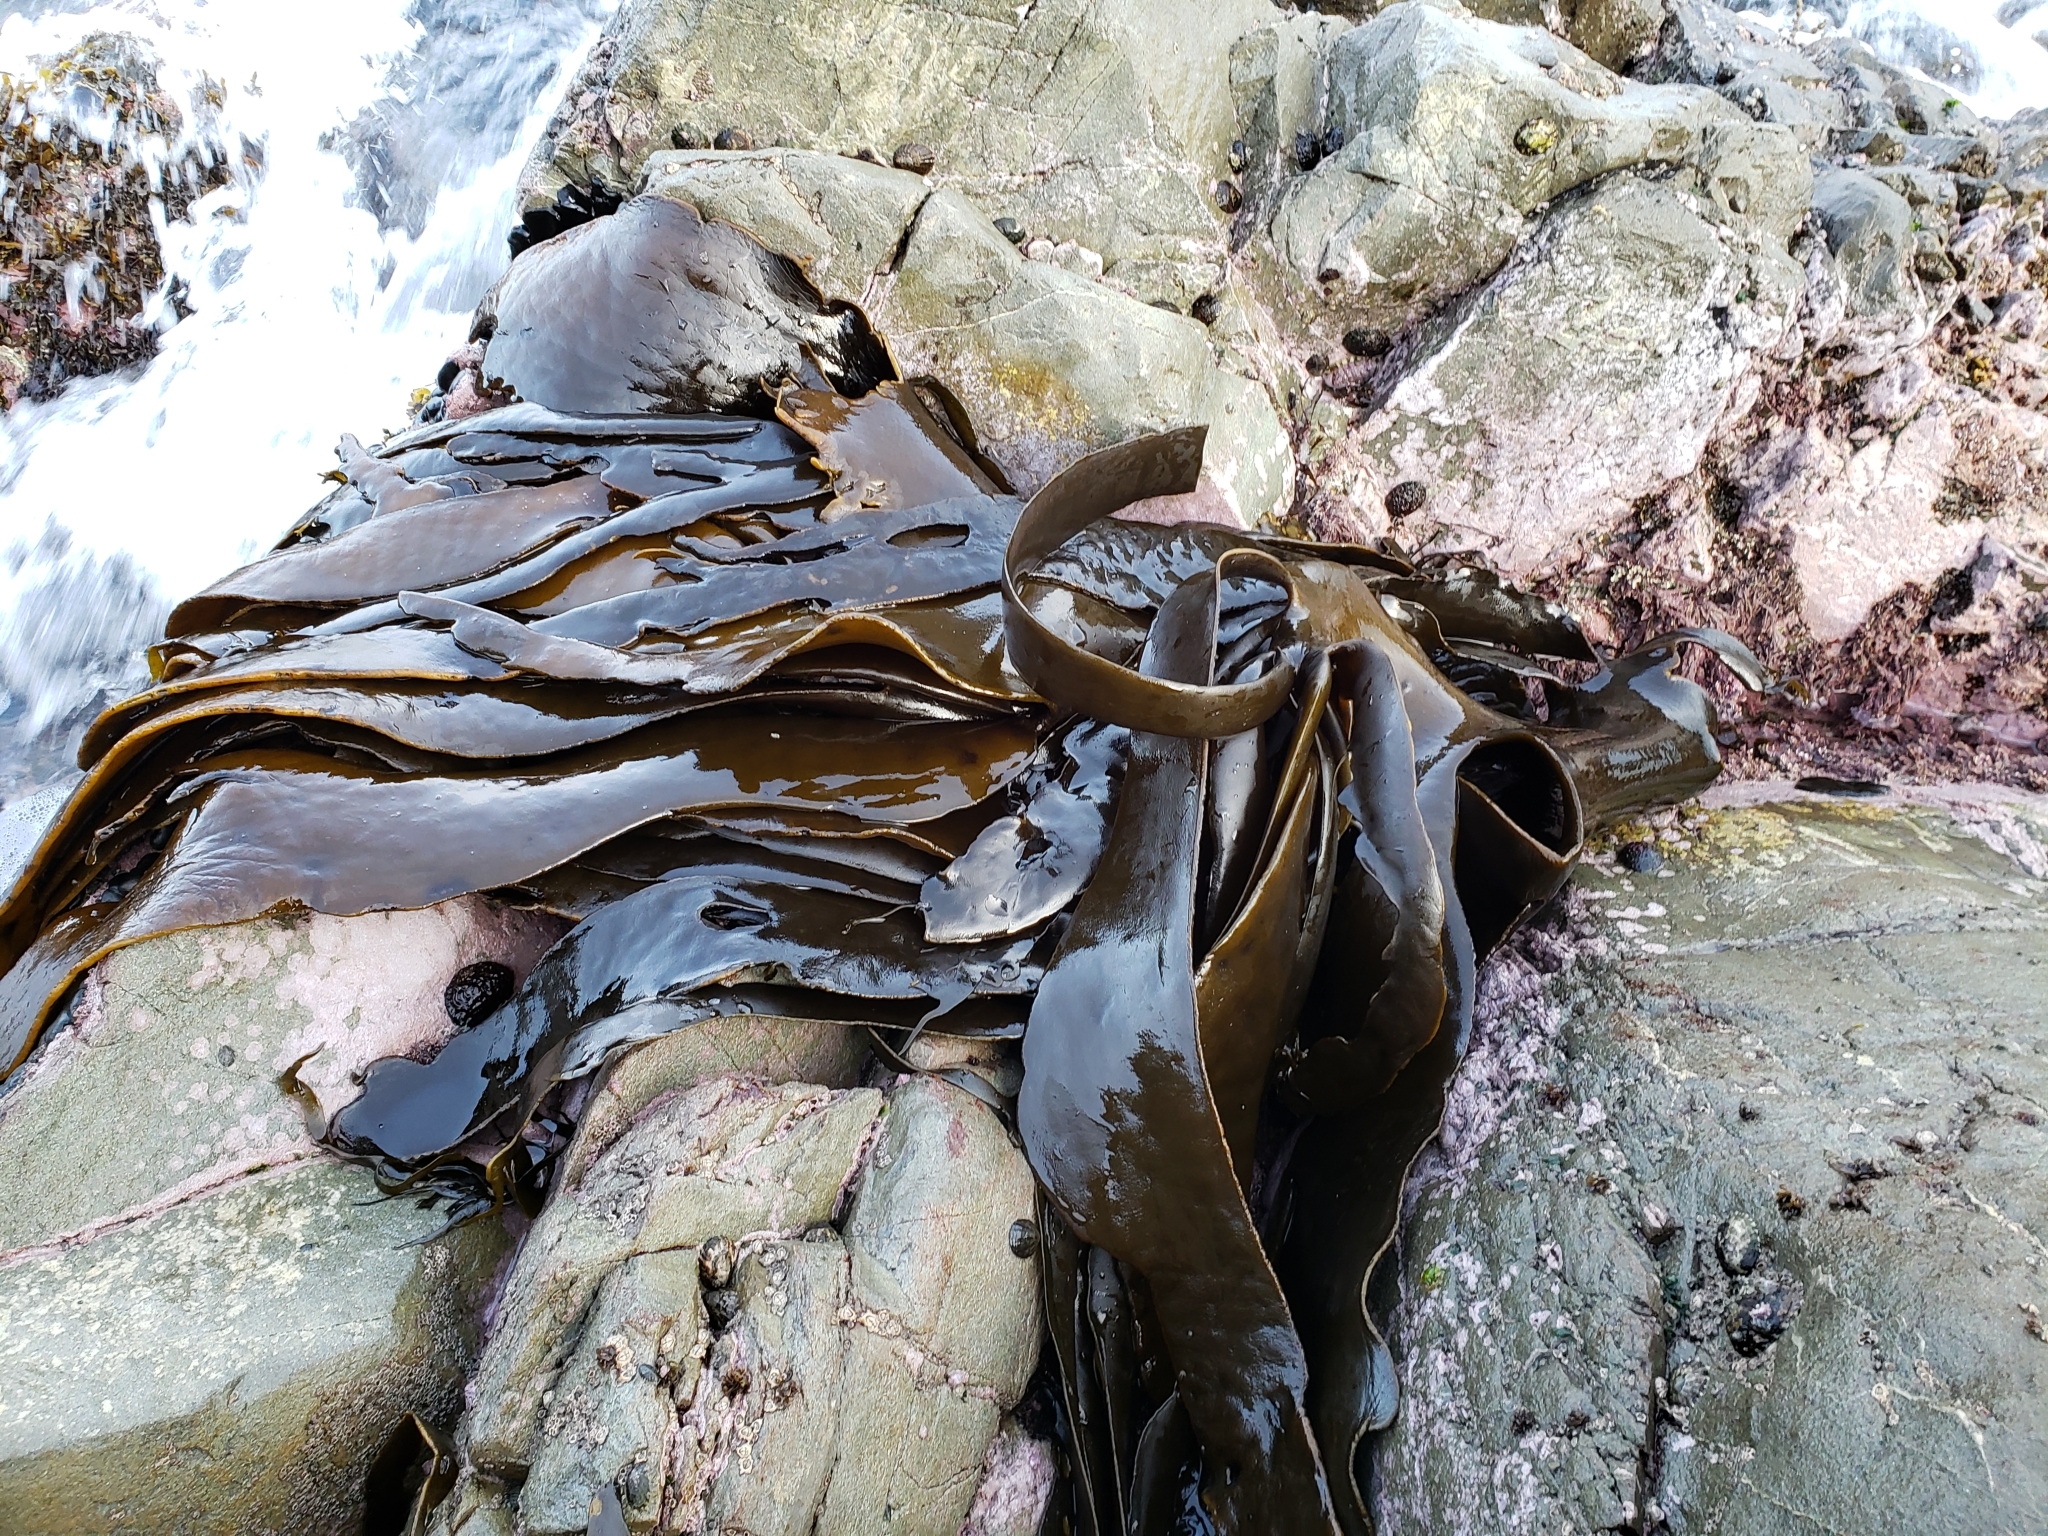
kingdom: Chromista
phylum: Ochrophyta
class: Phaeophyceae
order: Fucales
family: Durvillaeaceae
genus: Durvillaea
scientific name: Durvillaea antarctica
